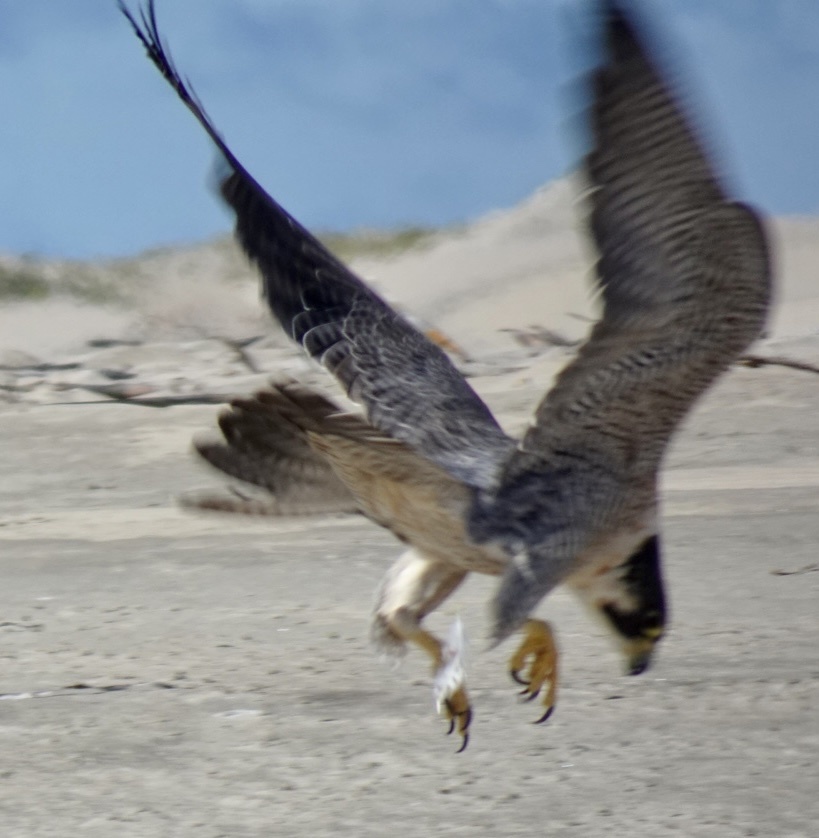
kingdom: Animalia
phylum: Chordata
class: Aves
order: Falconiformes
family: Falconidae
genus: Falco
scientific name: Falco peregrinus
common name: Peregrine falcon
